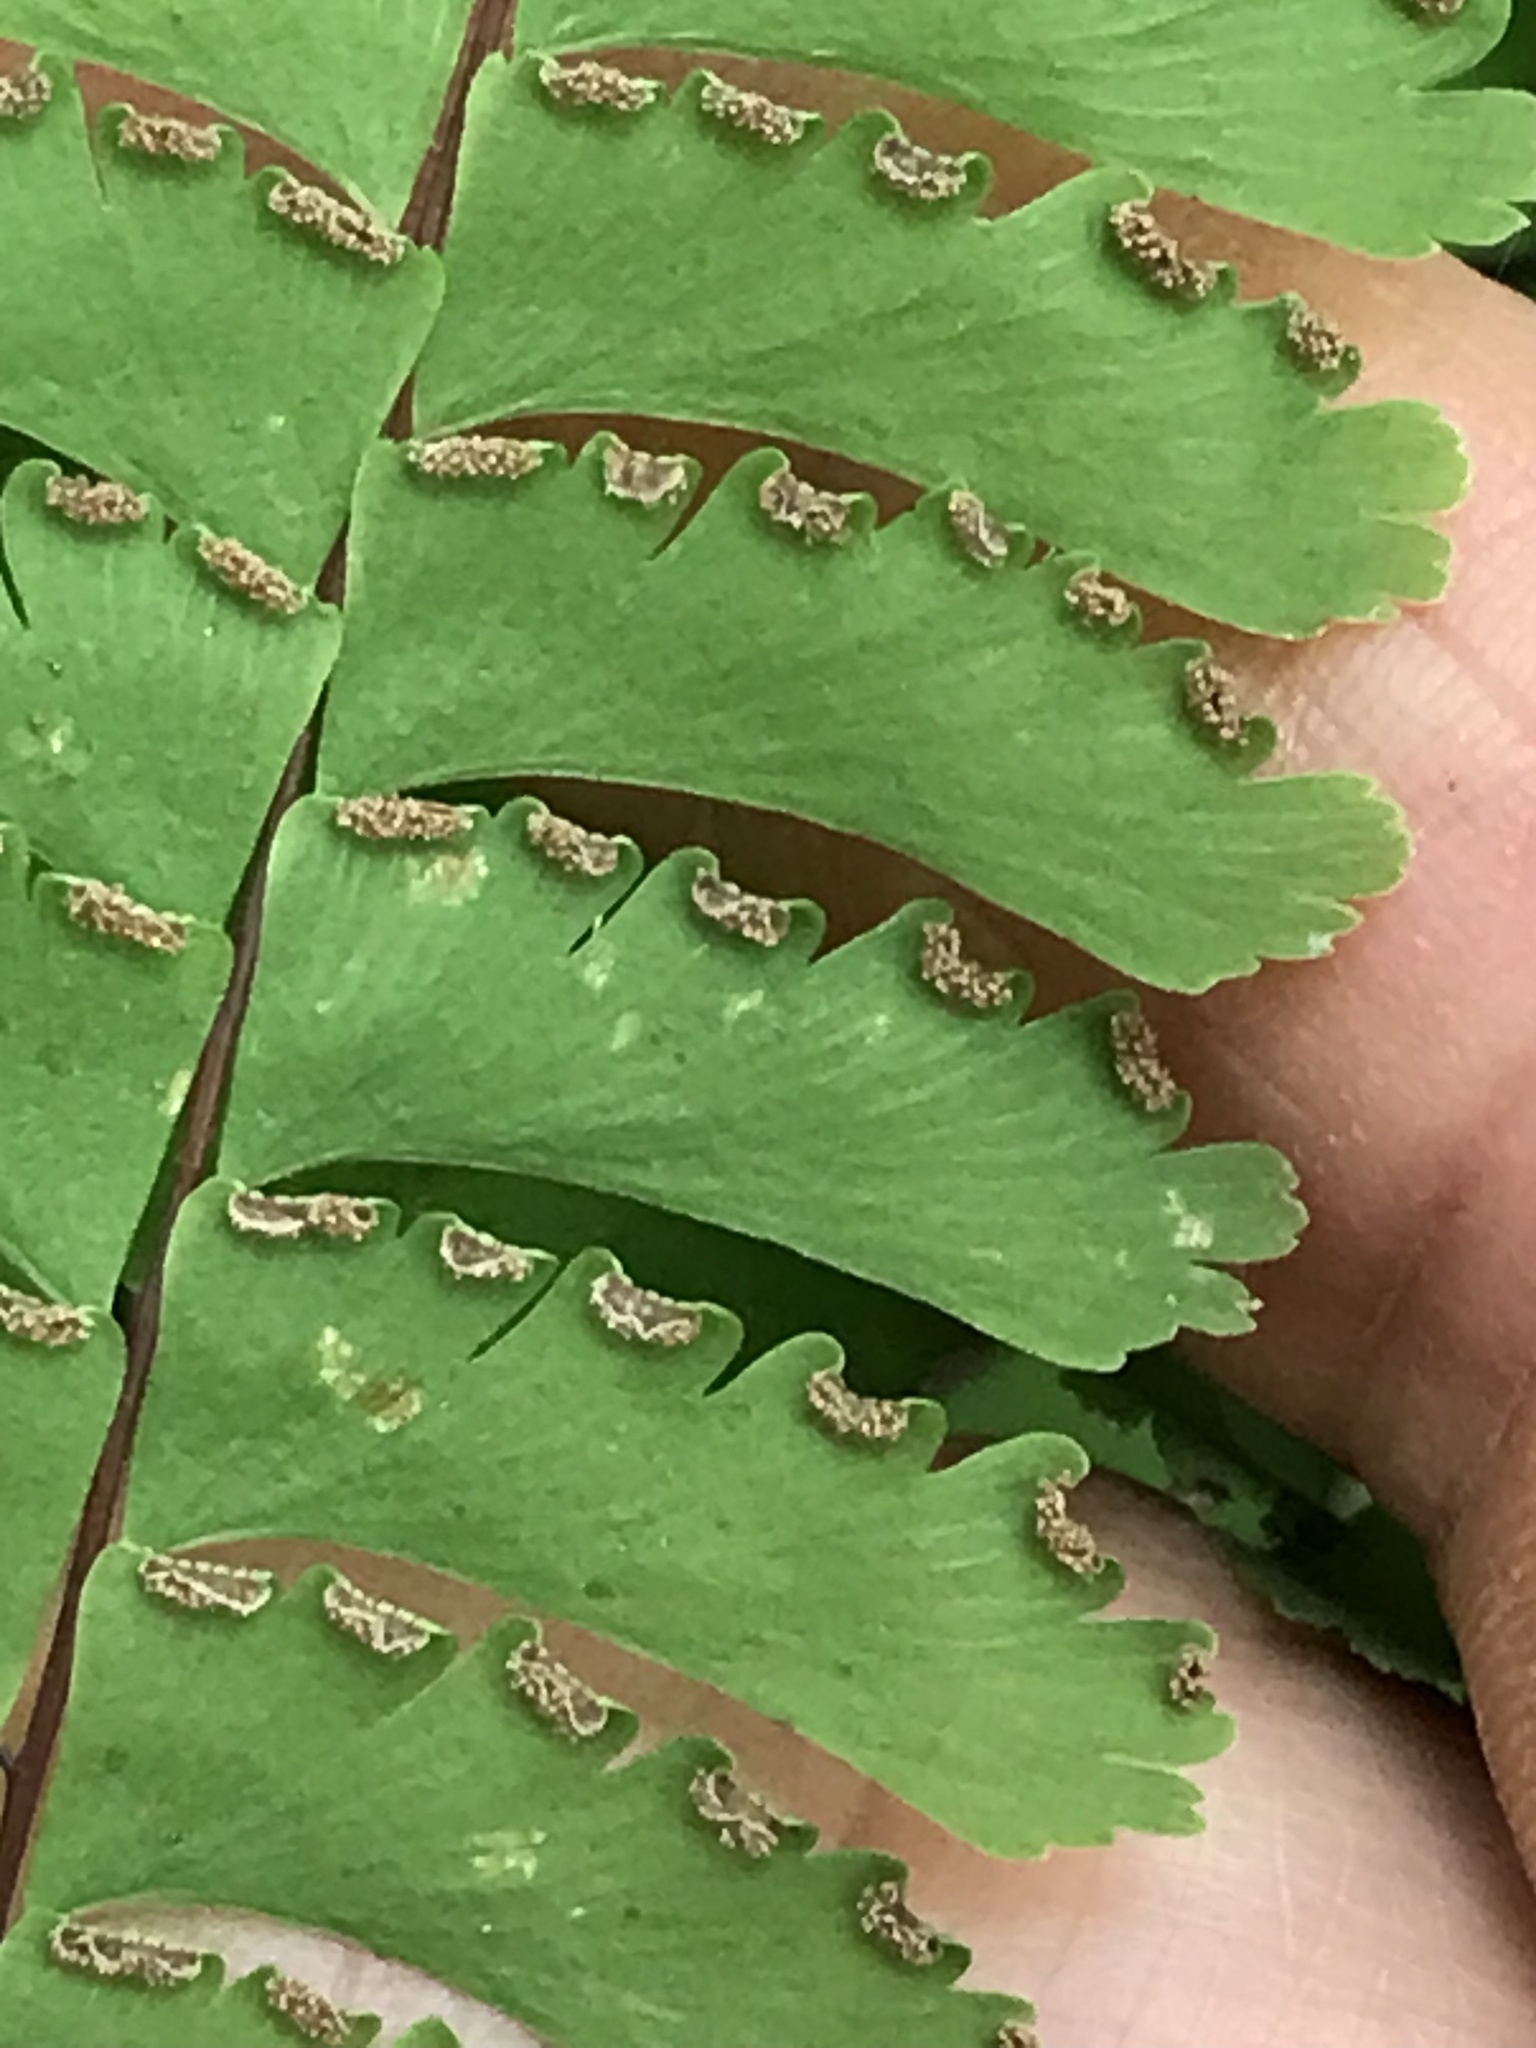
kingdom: Plantae
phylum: Tracheophyta
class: Polypodiopsida
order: Polypodiales
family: Pteridaceae
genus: Adiantum
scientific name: Adiantum aleuticum
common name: Aleutian maidenhair fern
